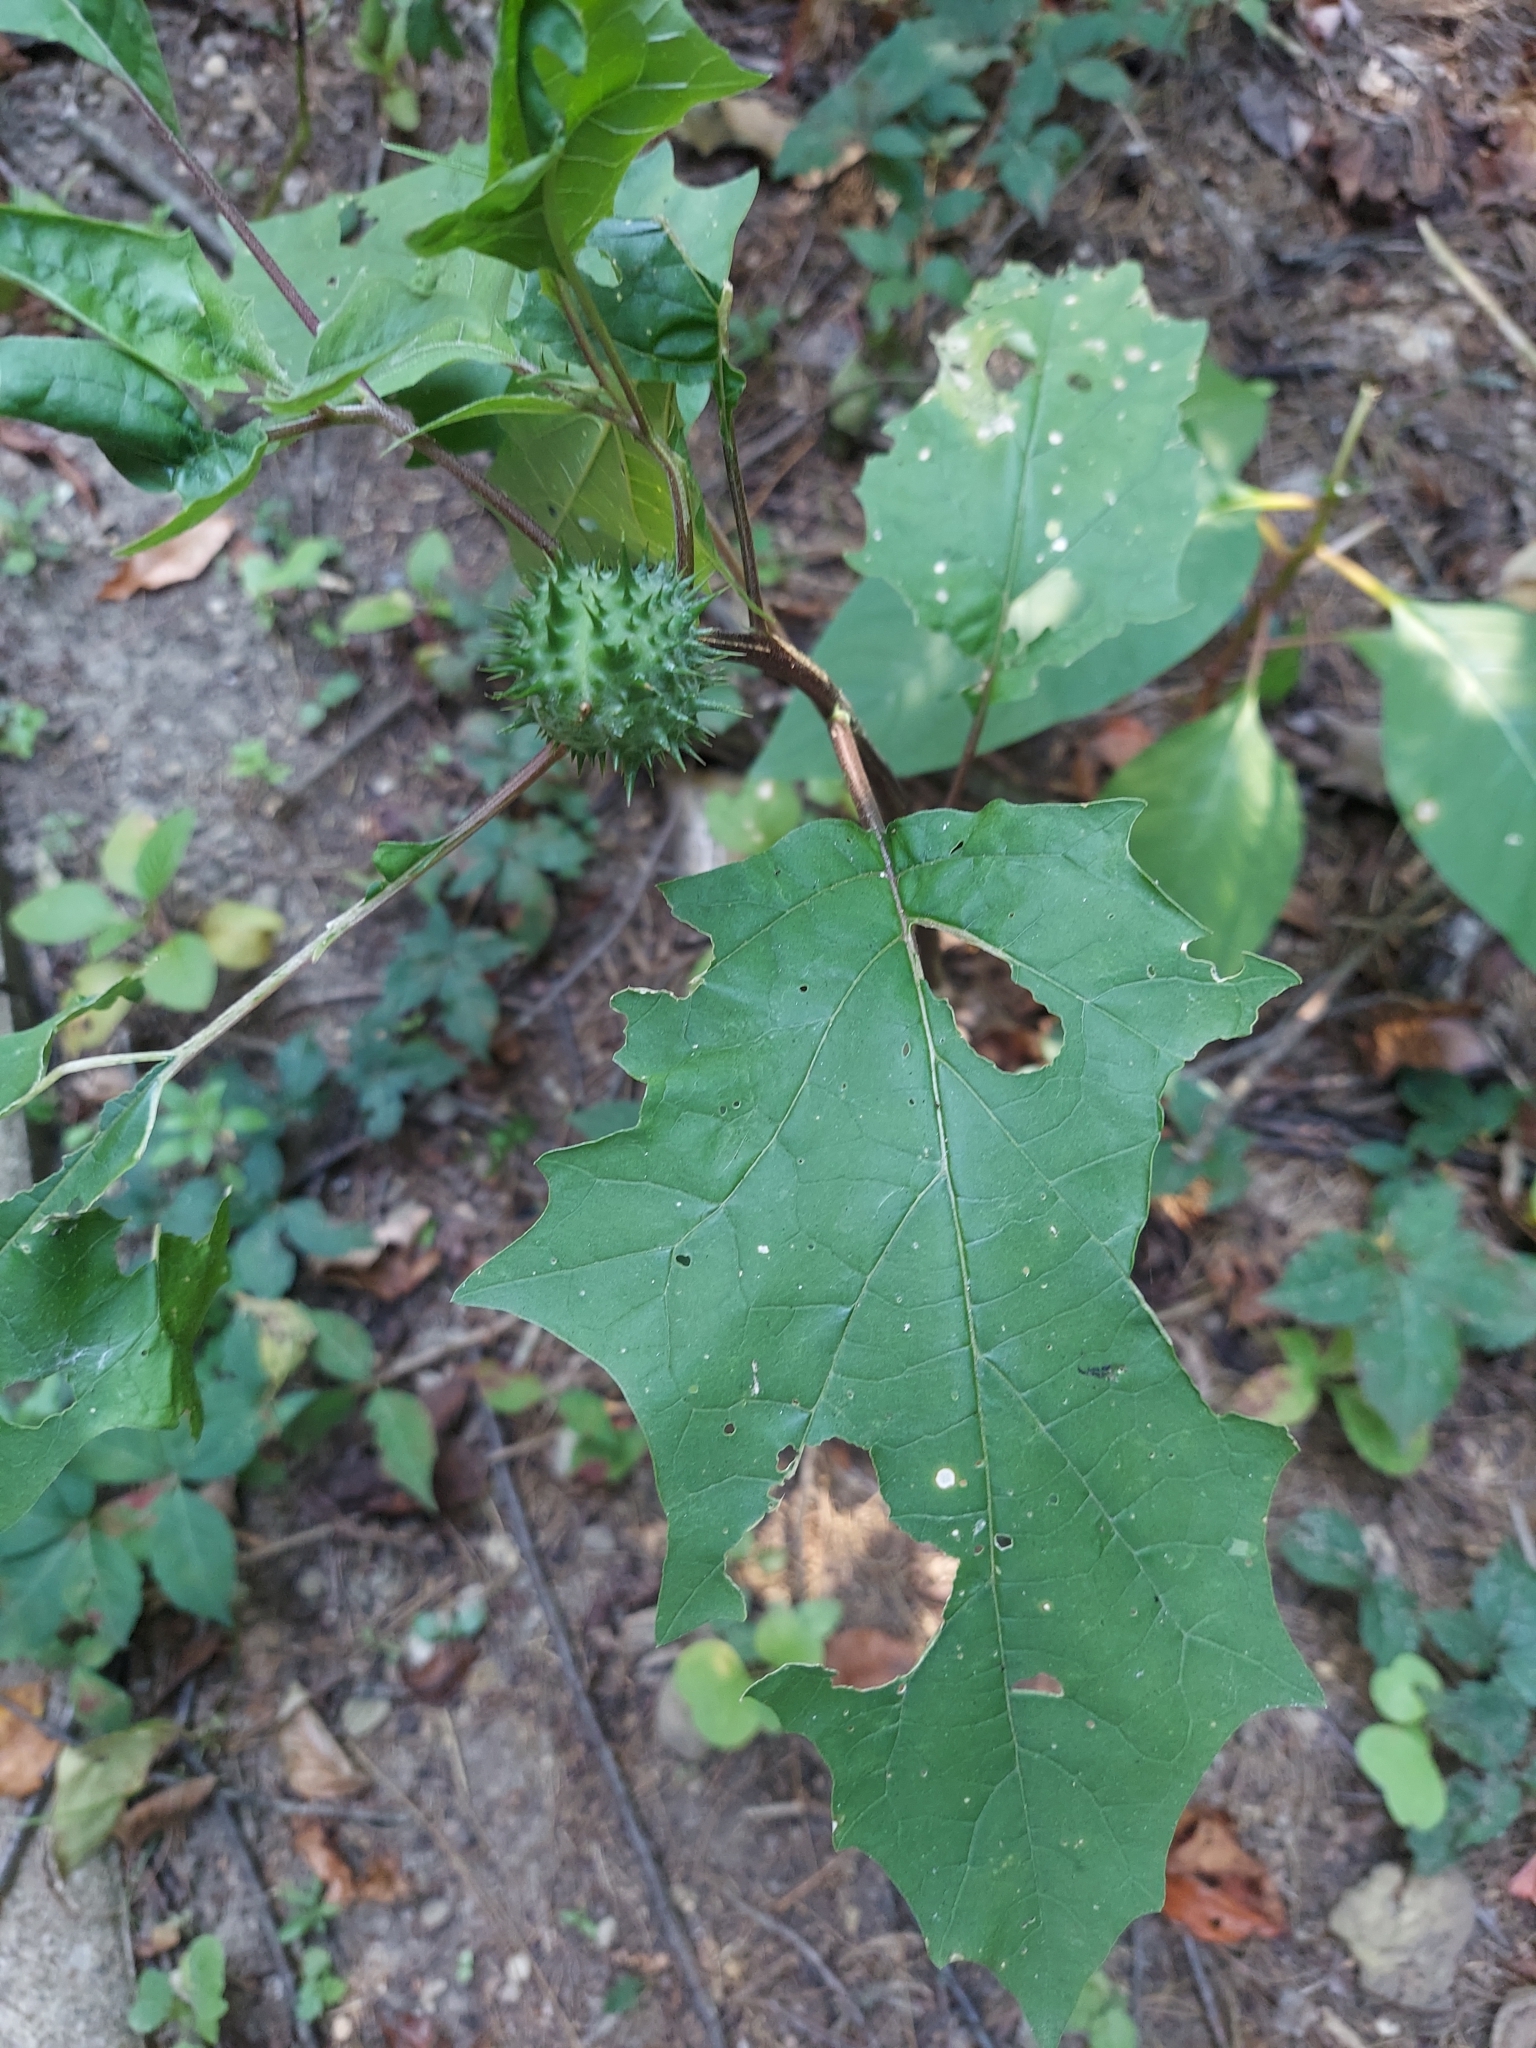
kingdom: Plantae
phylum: Tracheophyta
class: Magnoliopsida
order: Solanales
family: Solanaceae
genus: Datura
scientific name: Datura stramonium
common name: Thorn-apple
